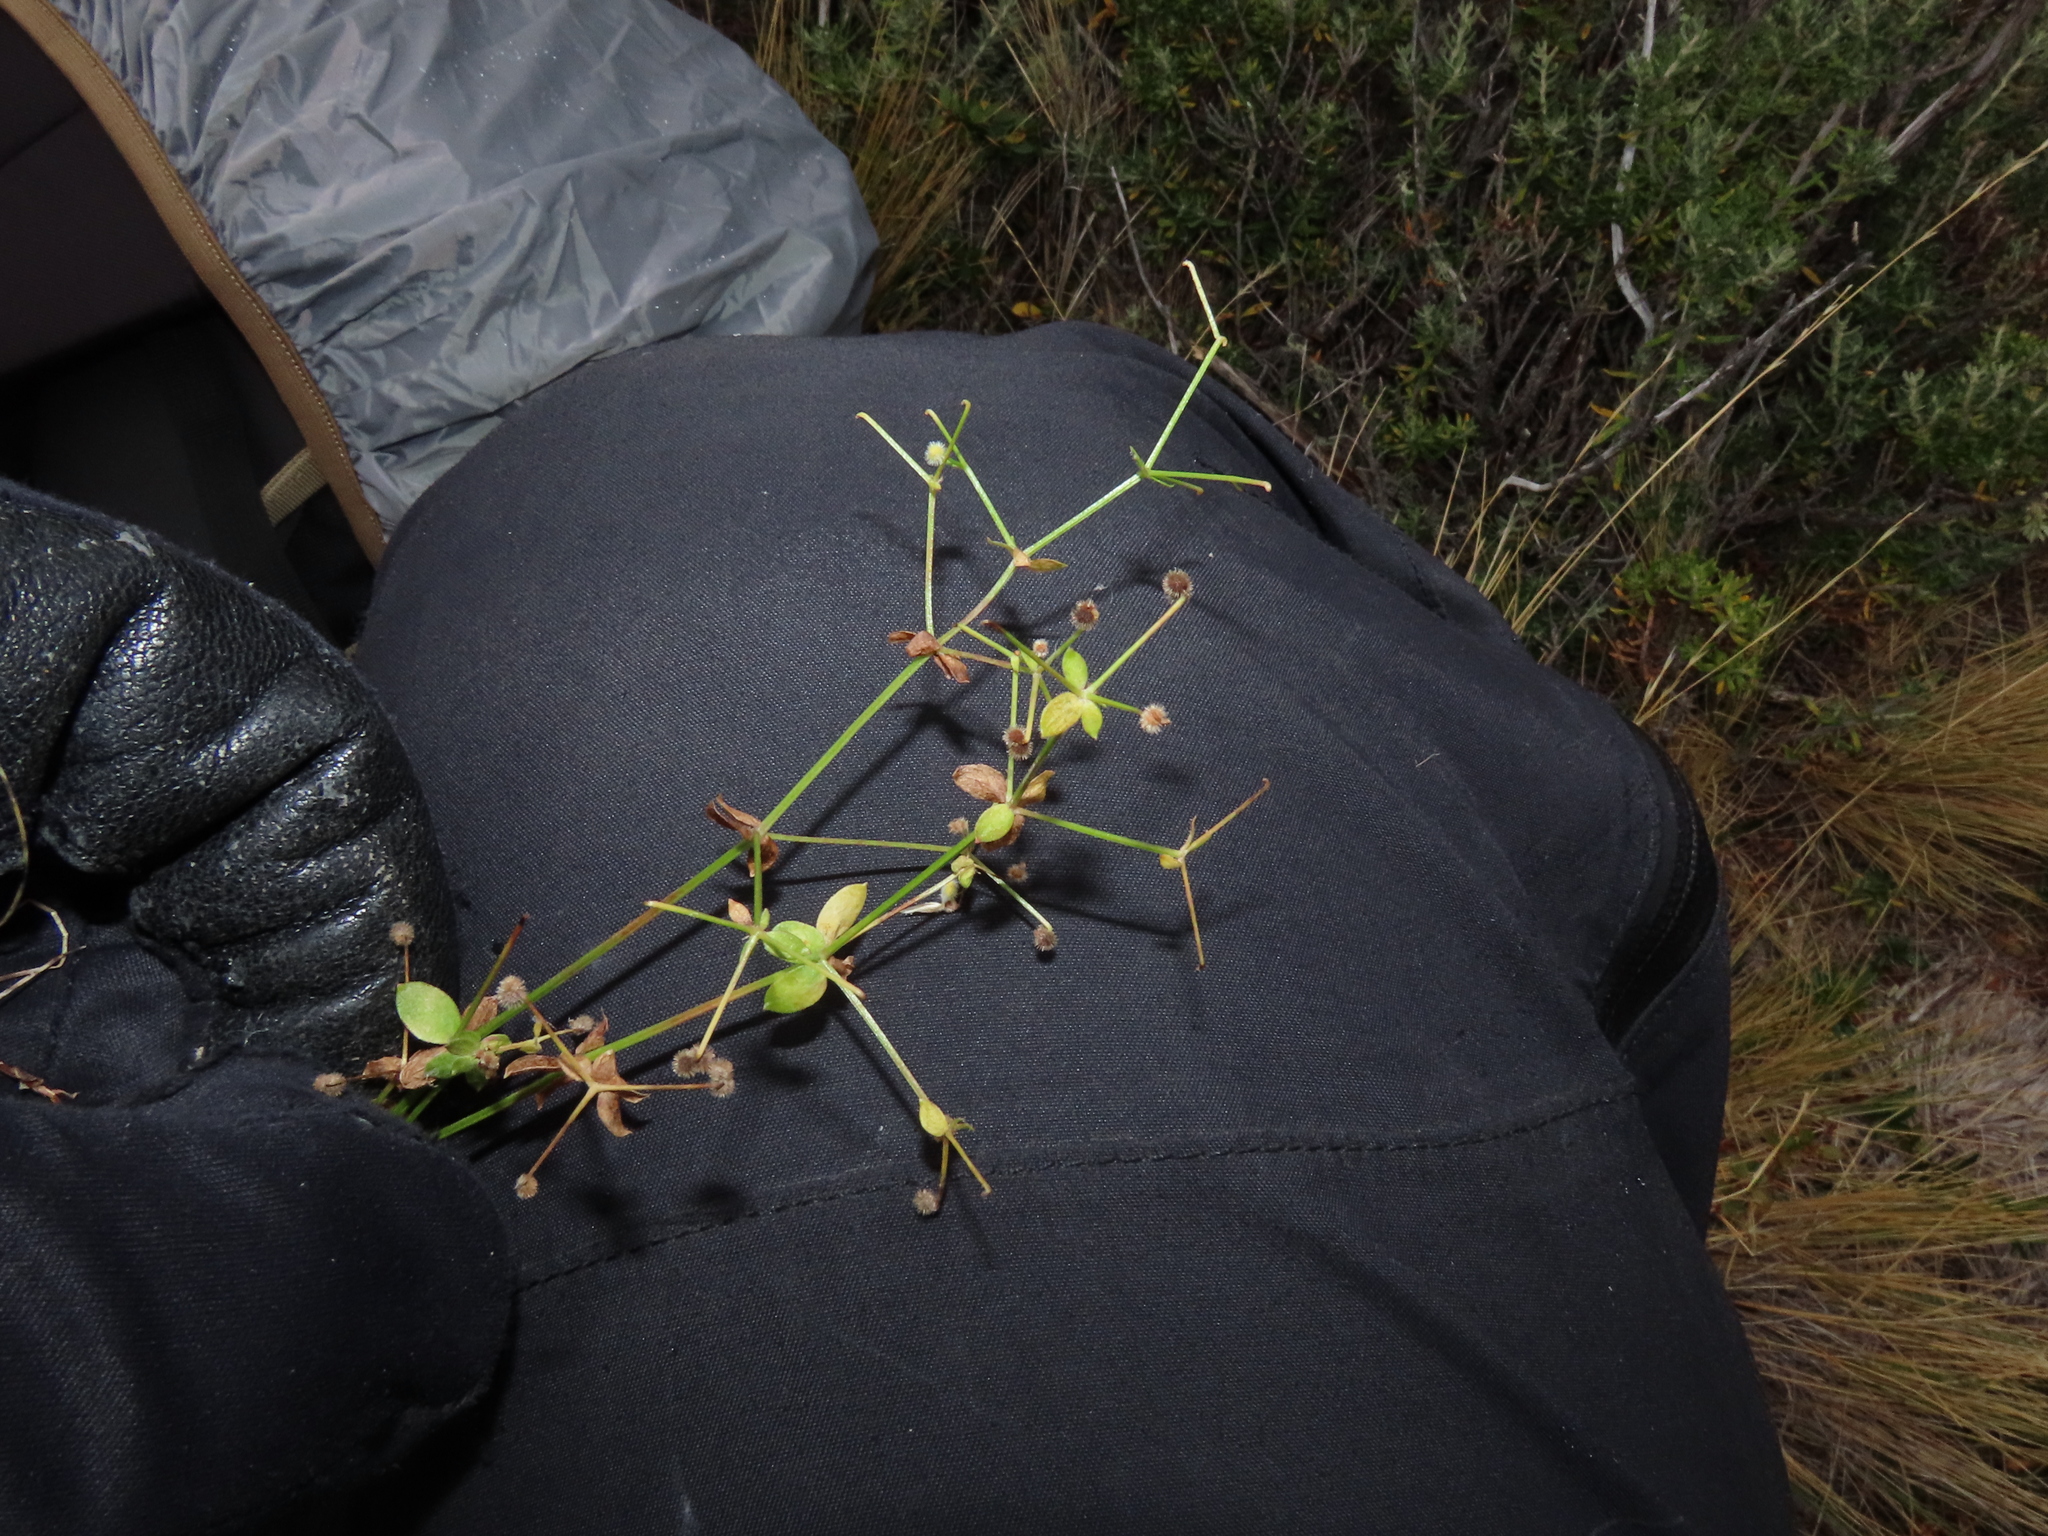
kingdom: Plantae
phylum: Tracheophyta
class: Magnoliopsida
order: Gentianales
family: Rubiaceae
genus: Galium
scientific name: Galium fuegianum
